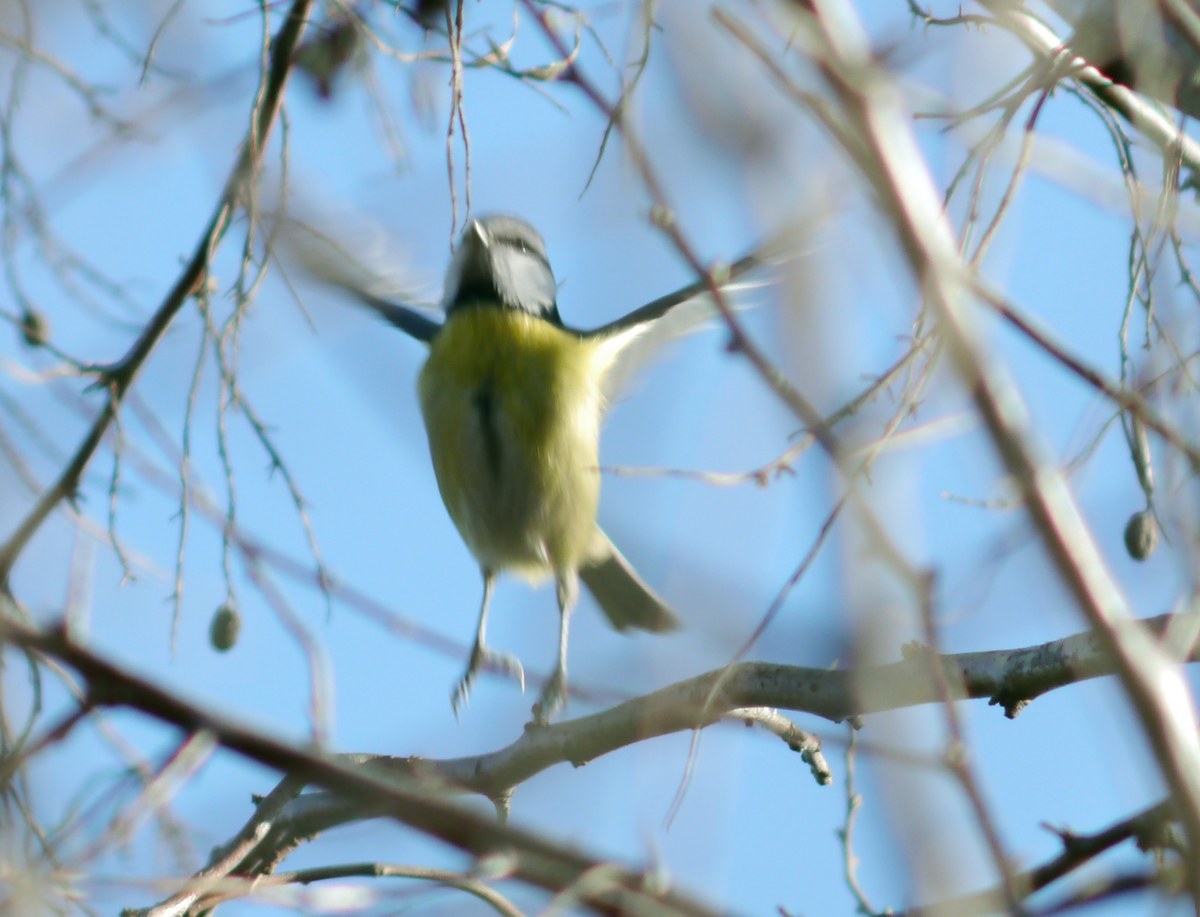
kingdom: Animalia
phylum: Chordata
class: Aves
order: Passeriformes
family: Paridae
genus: Cyanistes
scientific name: Cyanistes caeruleus
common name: Eurasian blue tit
